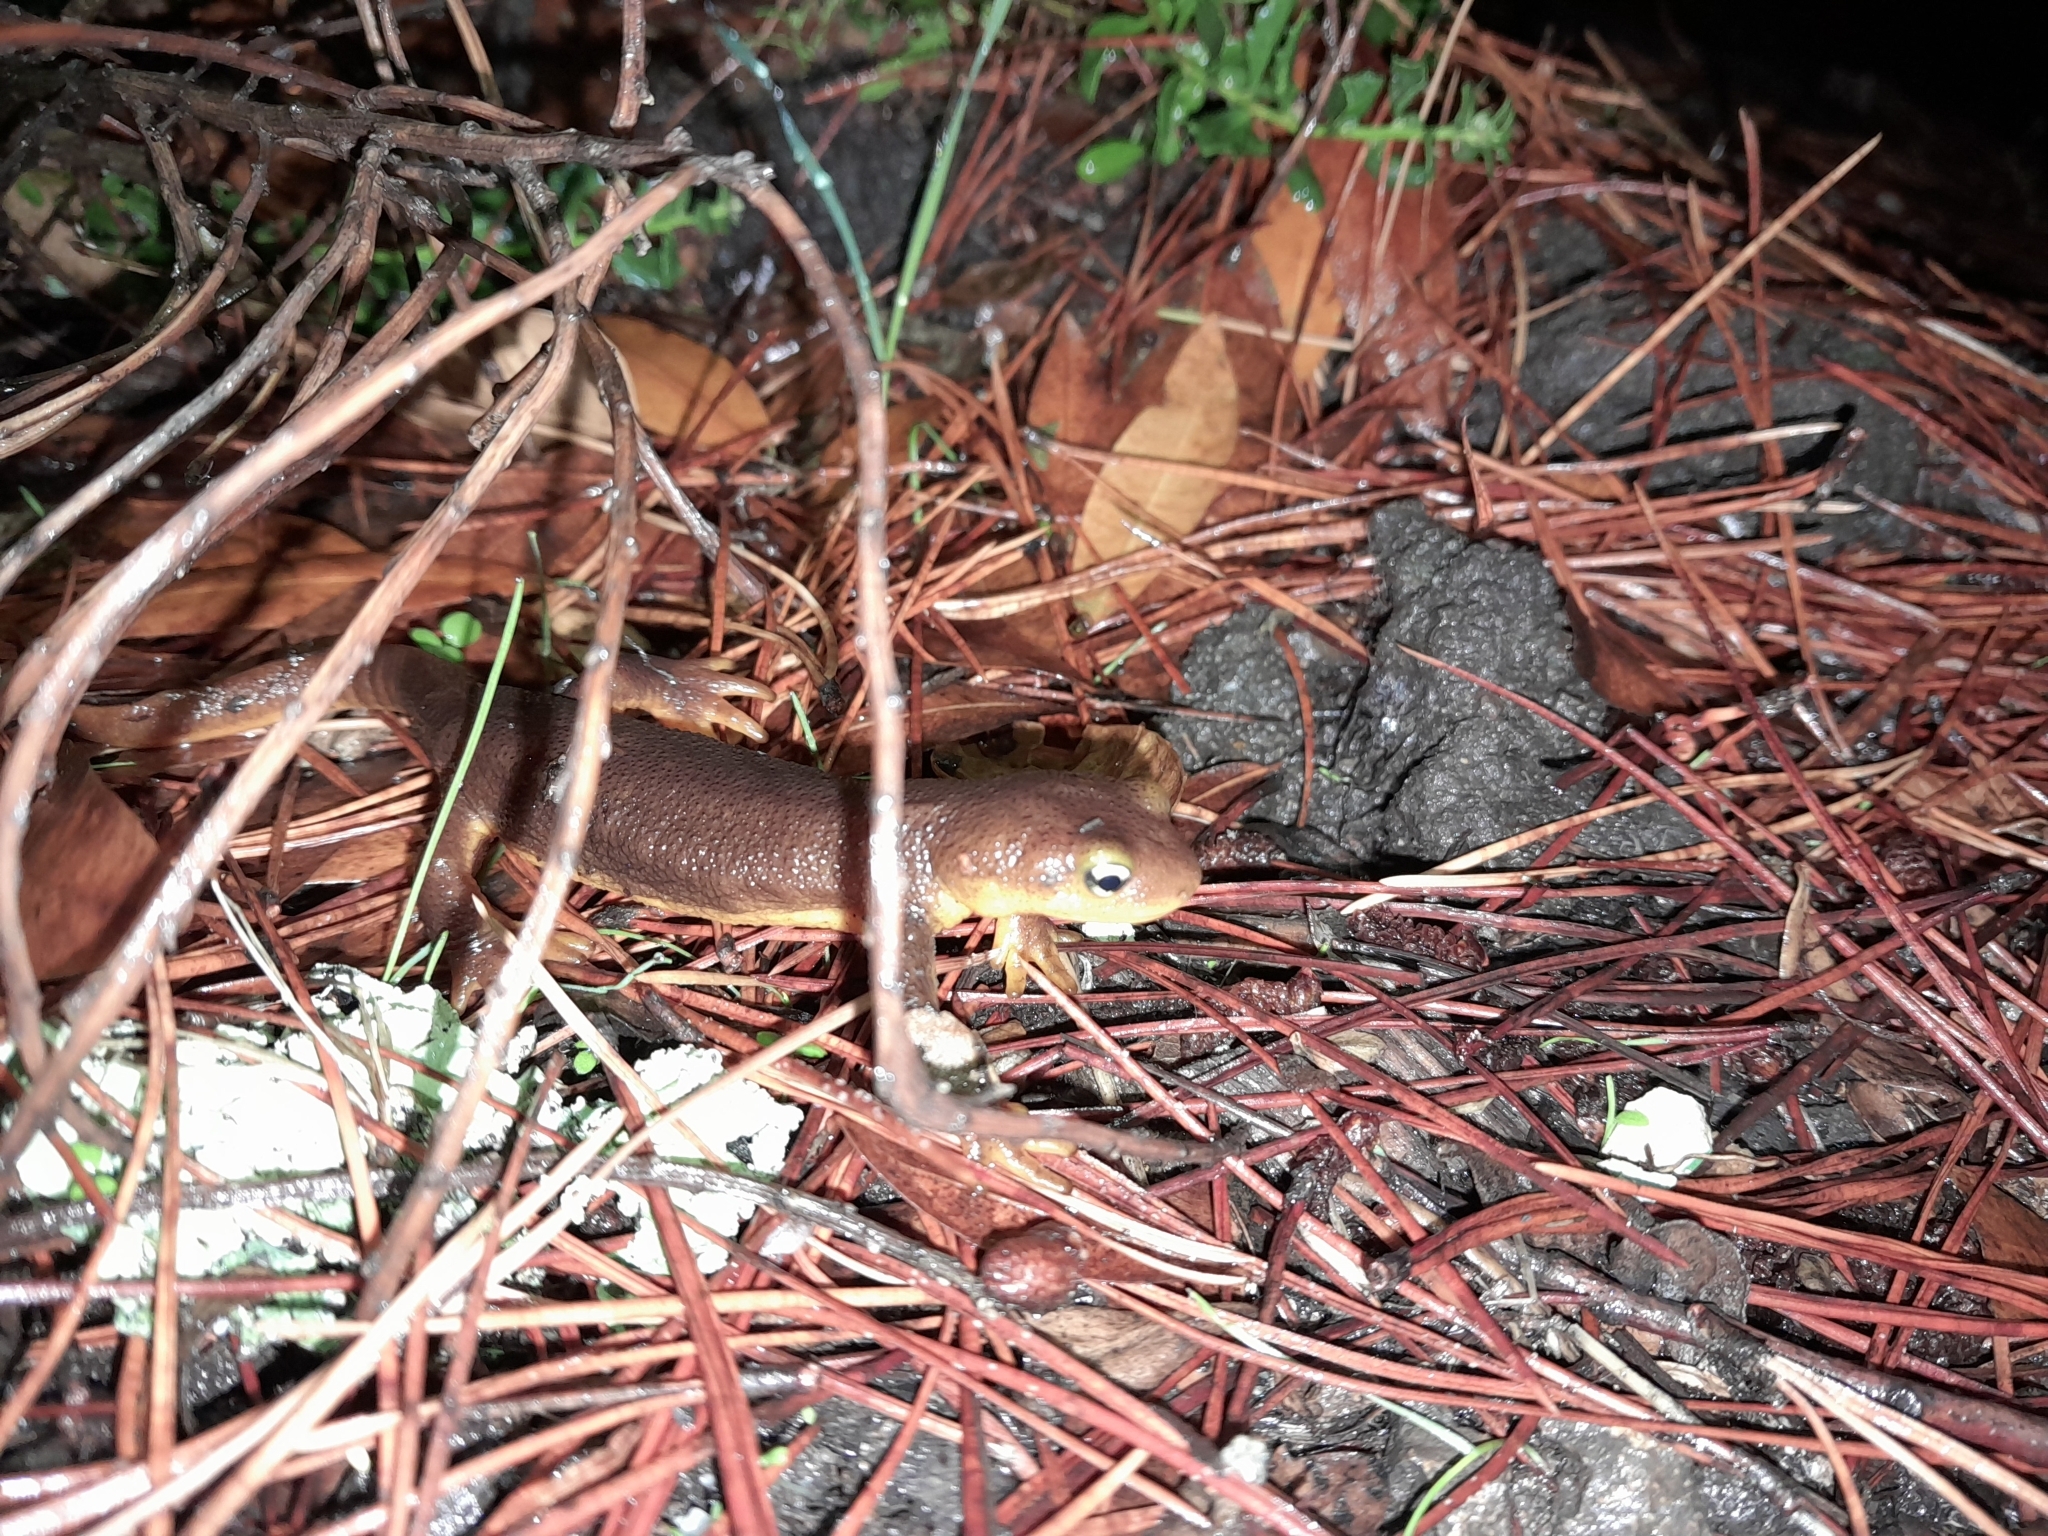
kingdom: Animalia
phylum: Chordata
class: Amphibia
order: Caudata
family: Salamandridae
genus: Taricha
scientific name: Taricha torosa
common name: California newt
